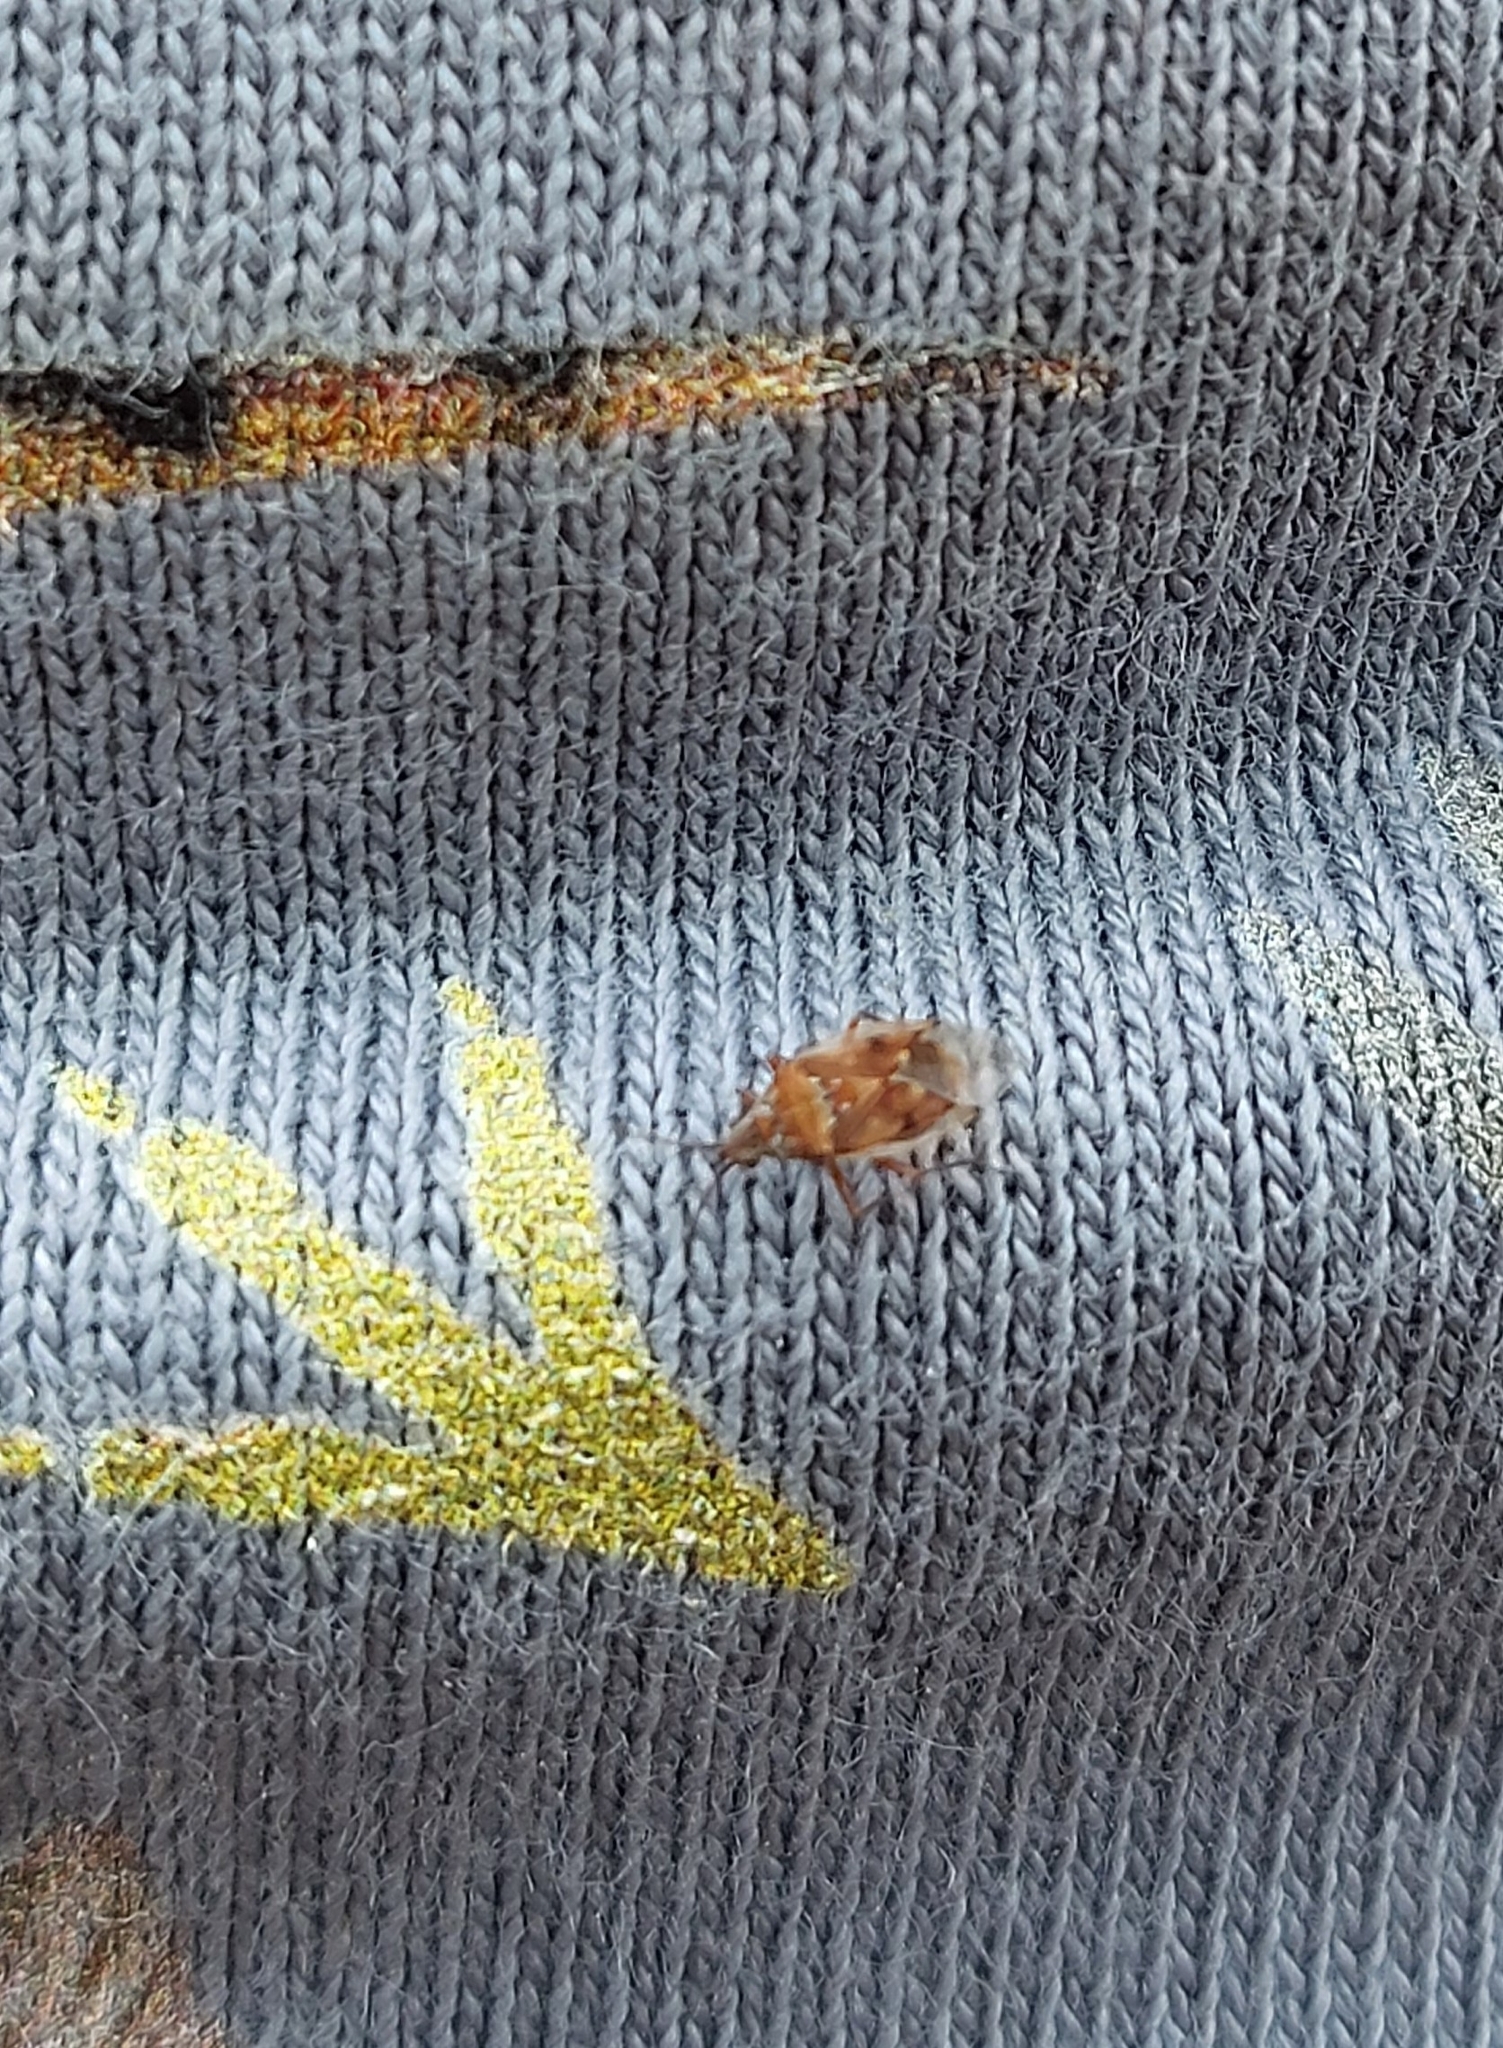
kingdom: Animalia
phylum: Arthropoda
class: Insecta
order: Hemiptera
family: Lygaeidae
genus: Kleidocerys
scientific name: Kleidocerys resedae
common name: Birch catkin bug
